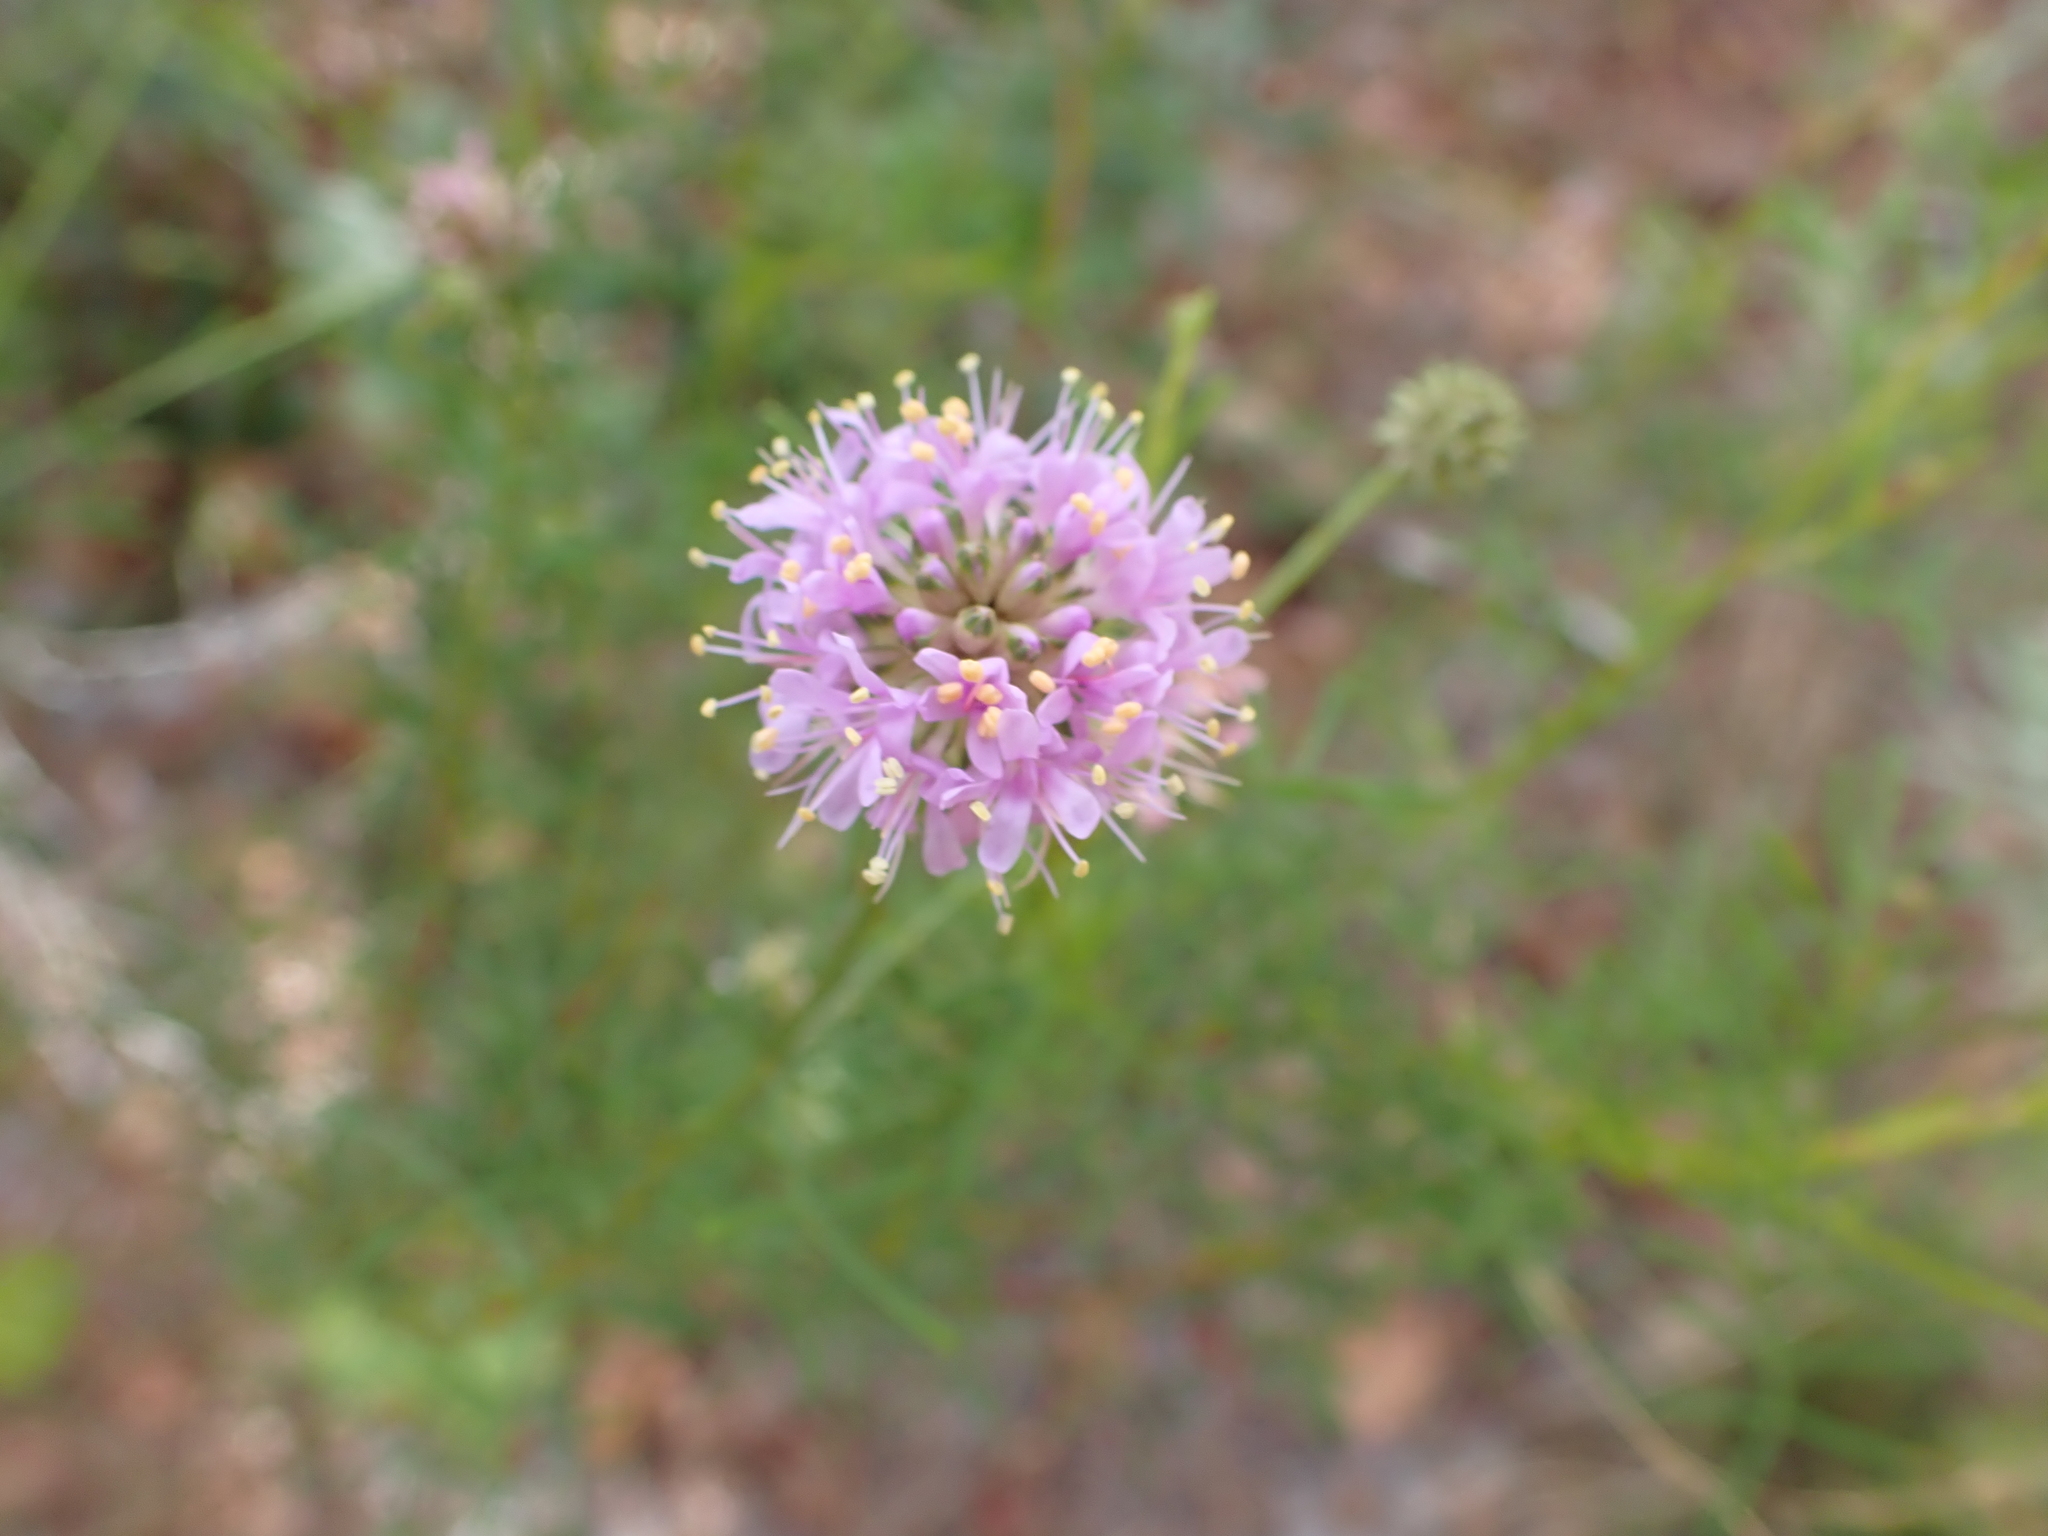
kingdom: Plantae
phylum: Tracheophyta
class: Magnoliopsida
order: Fabales
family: Fabaceae
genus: Dalea
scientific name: Dalea feayi
